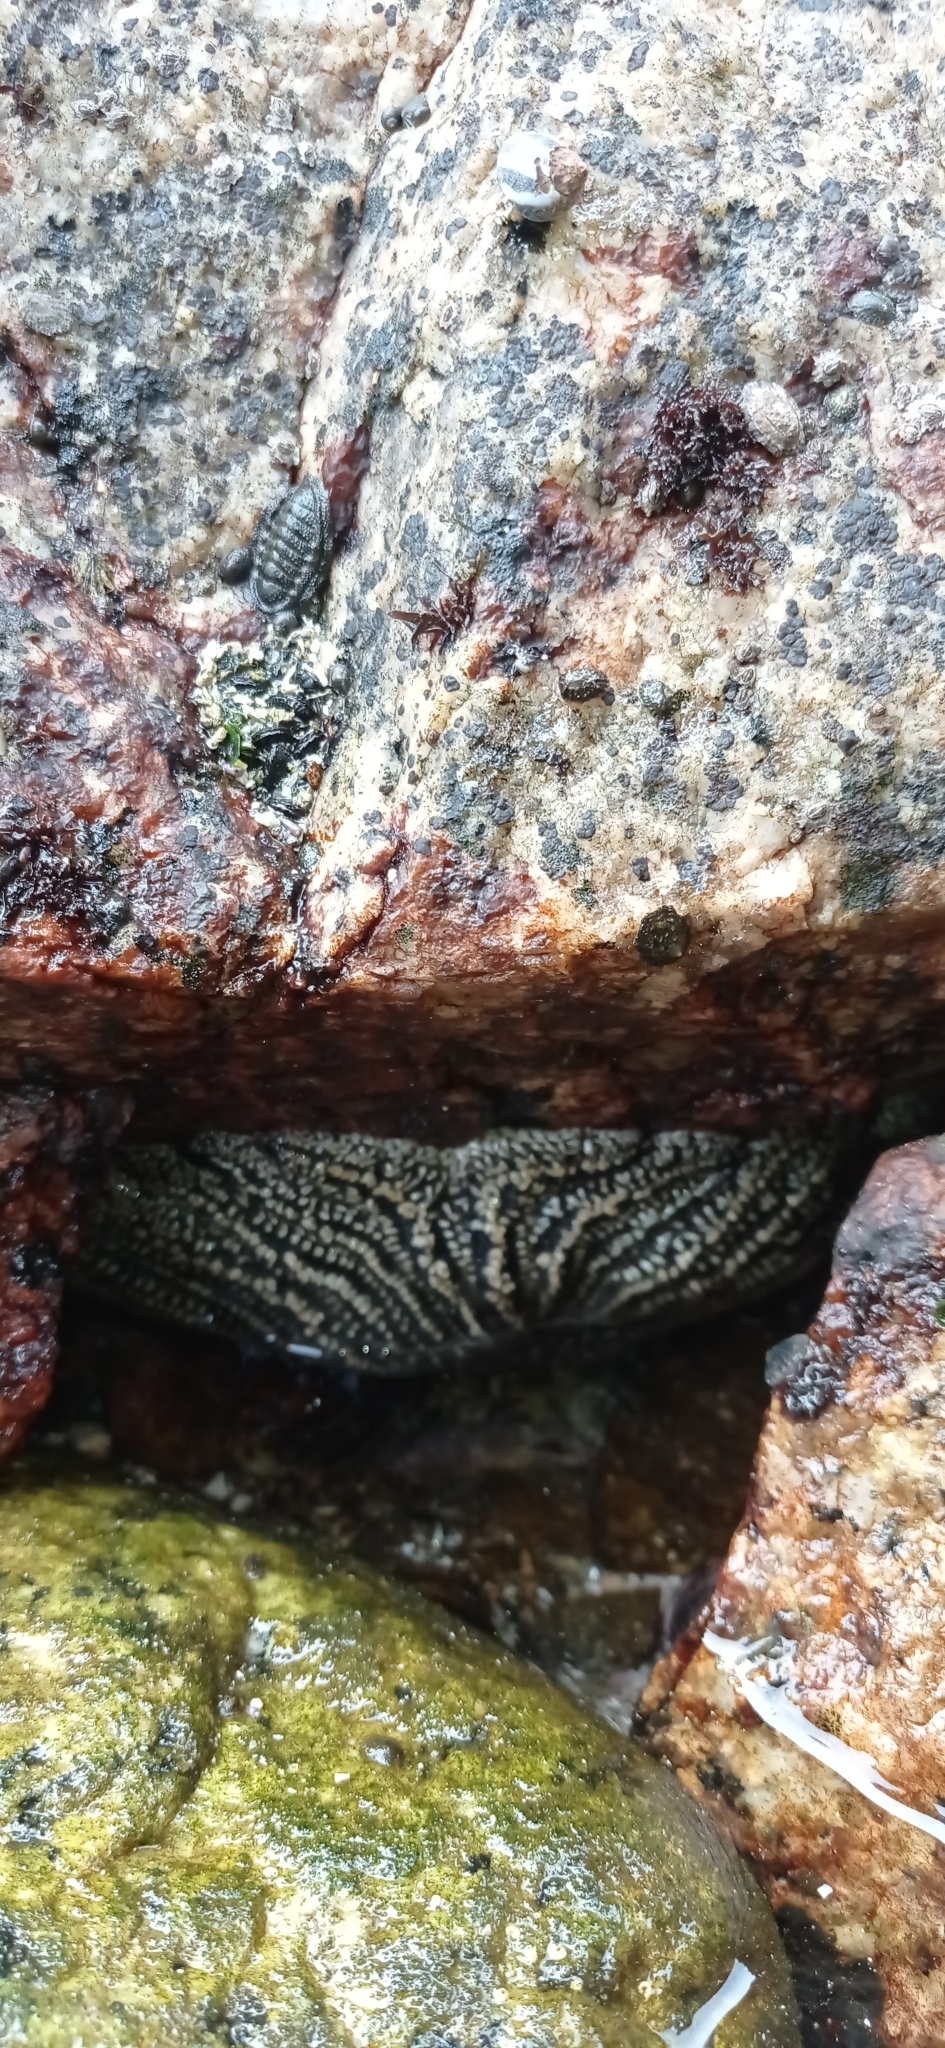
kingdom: Animalia
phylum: Echinodermata
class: Asteroidea
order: Forcipulatida
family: Heliasteridae
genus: Heliaster
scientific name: Heliaster helianthus
